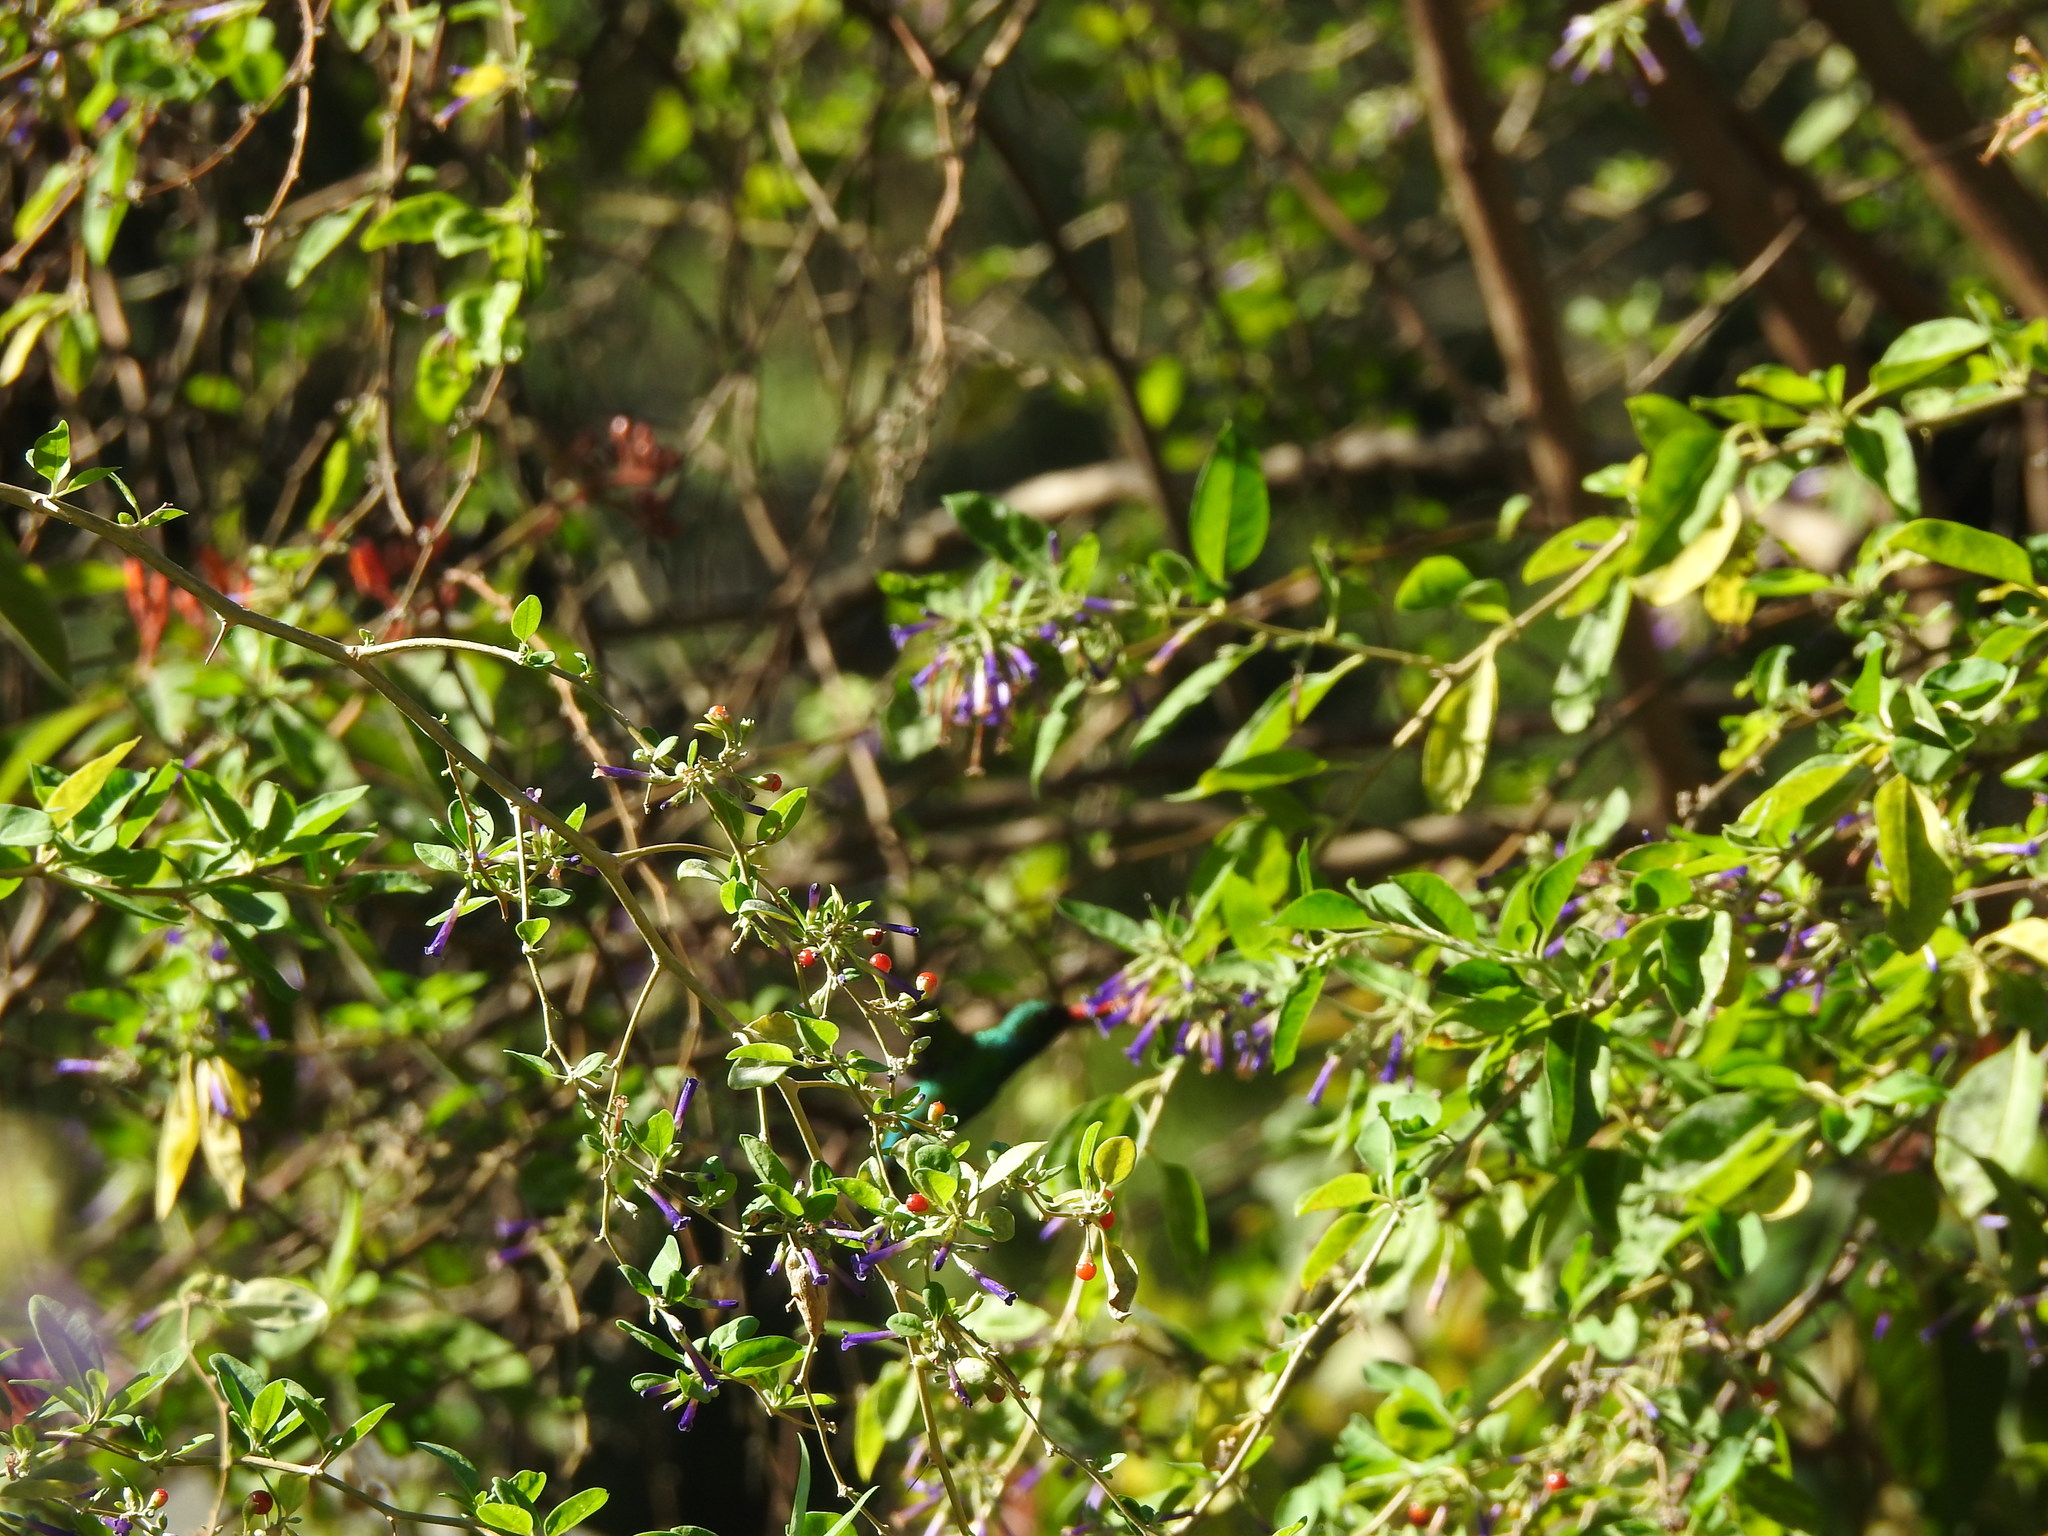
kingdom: Plantae
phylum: Tracheophyta
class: Magnoliopsida
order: Solanales
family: Solanaceae
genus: Lycium
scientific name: Lycium cestroides
